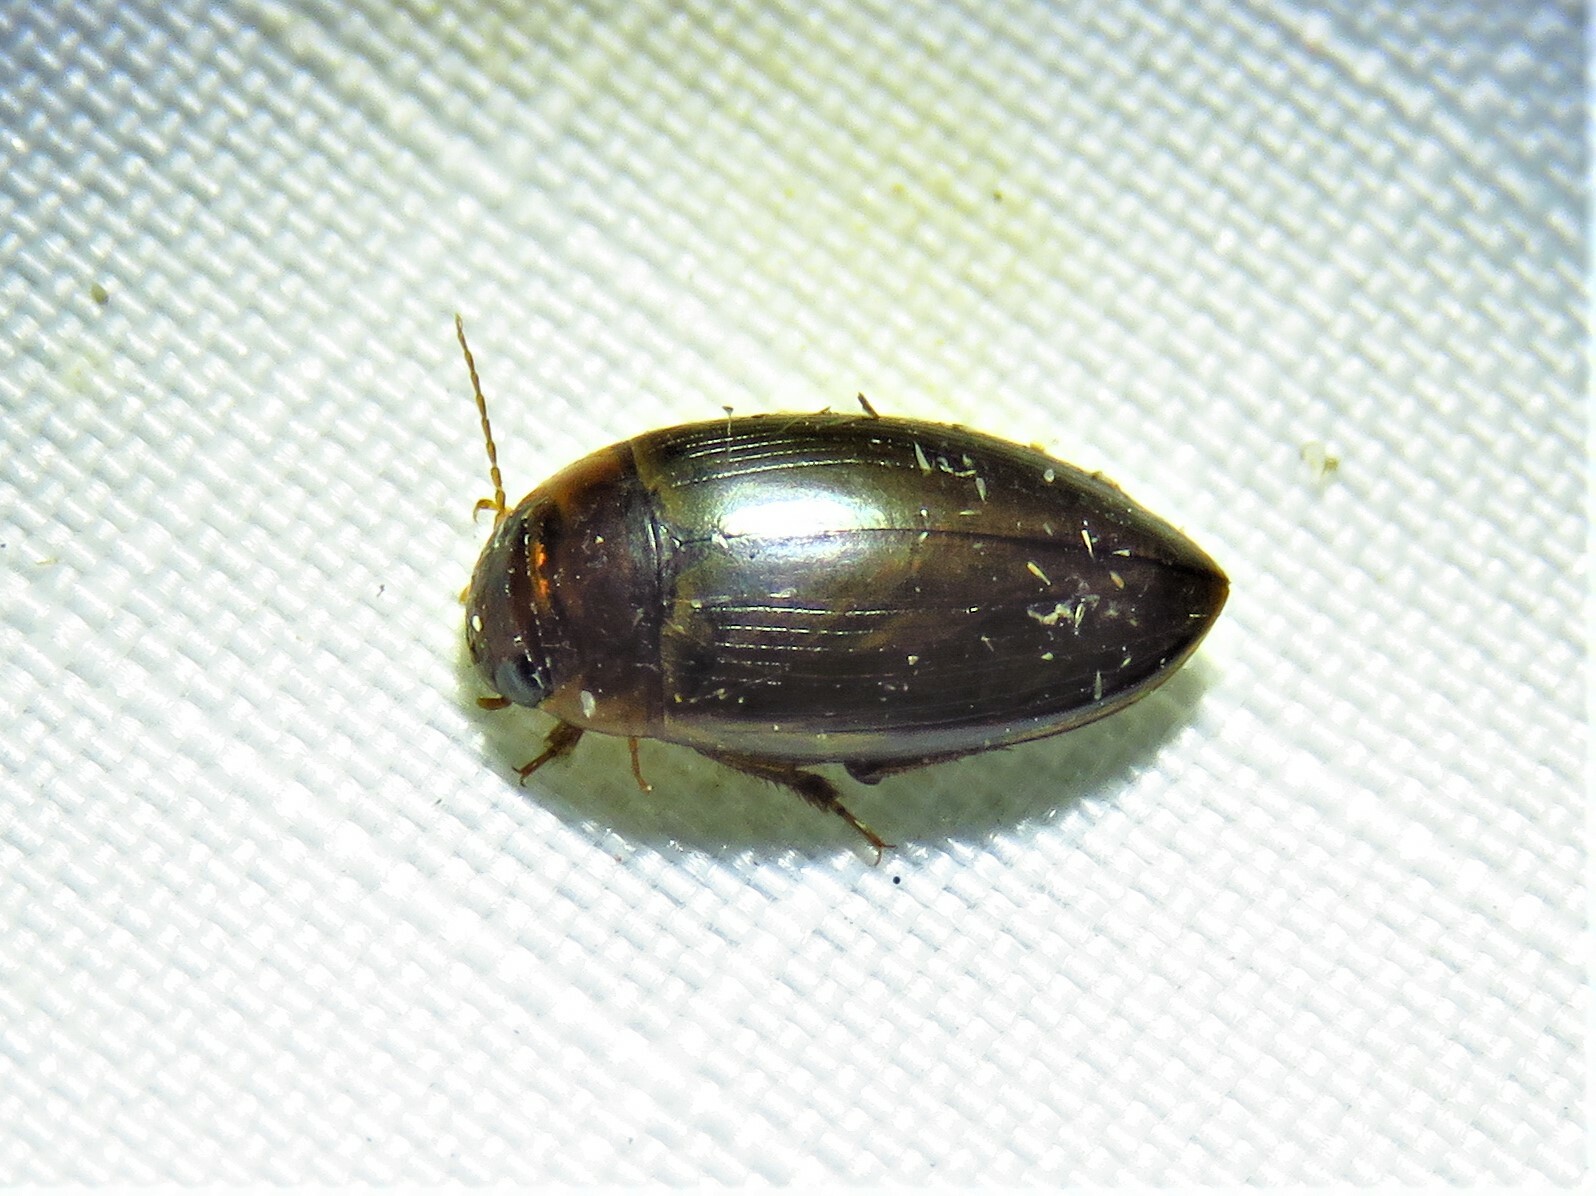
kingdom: Animalia
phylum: Arthropoda
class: Insecta
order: Coleoptera
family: Dytiscidae
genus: Copelatus
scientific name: Copelatus chevrolati
